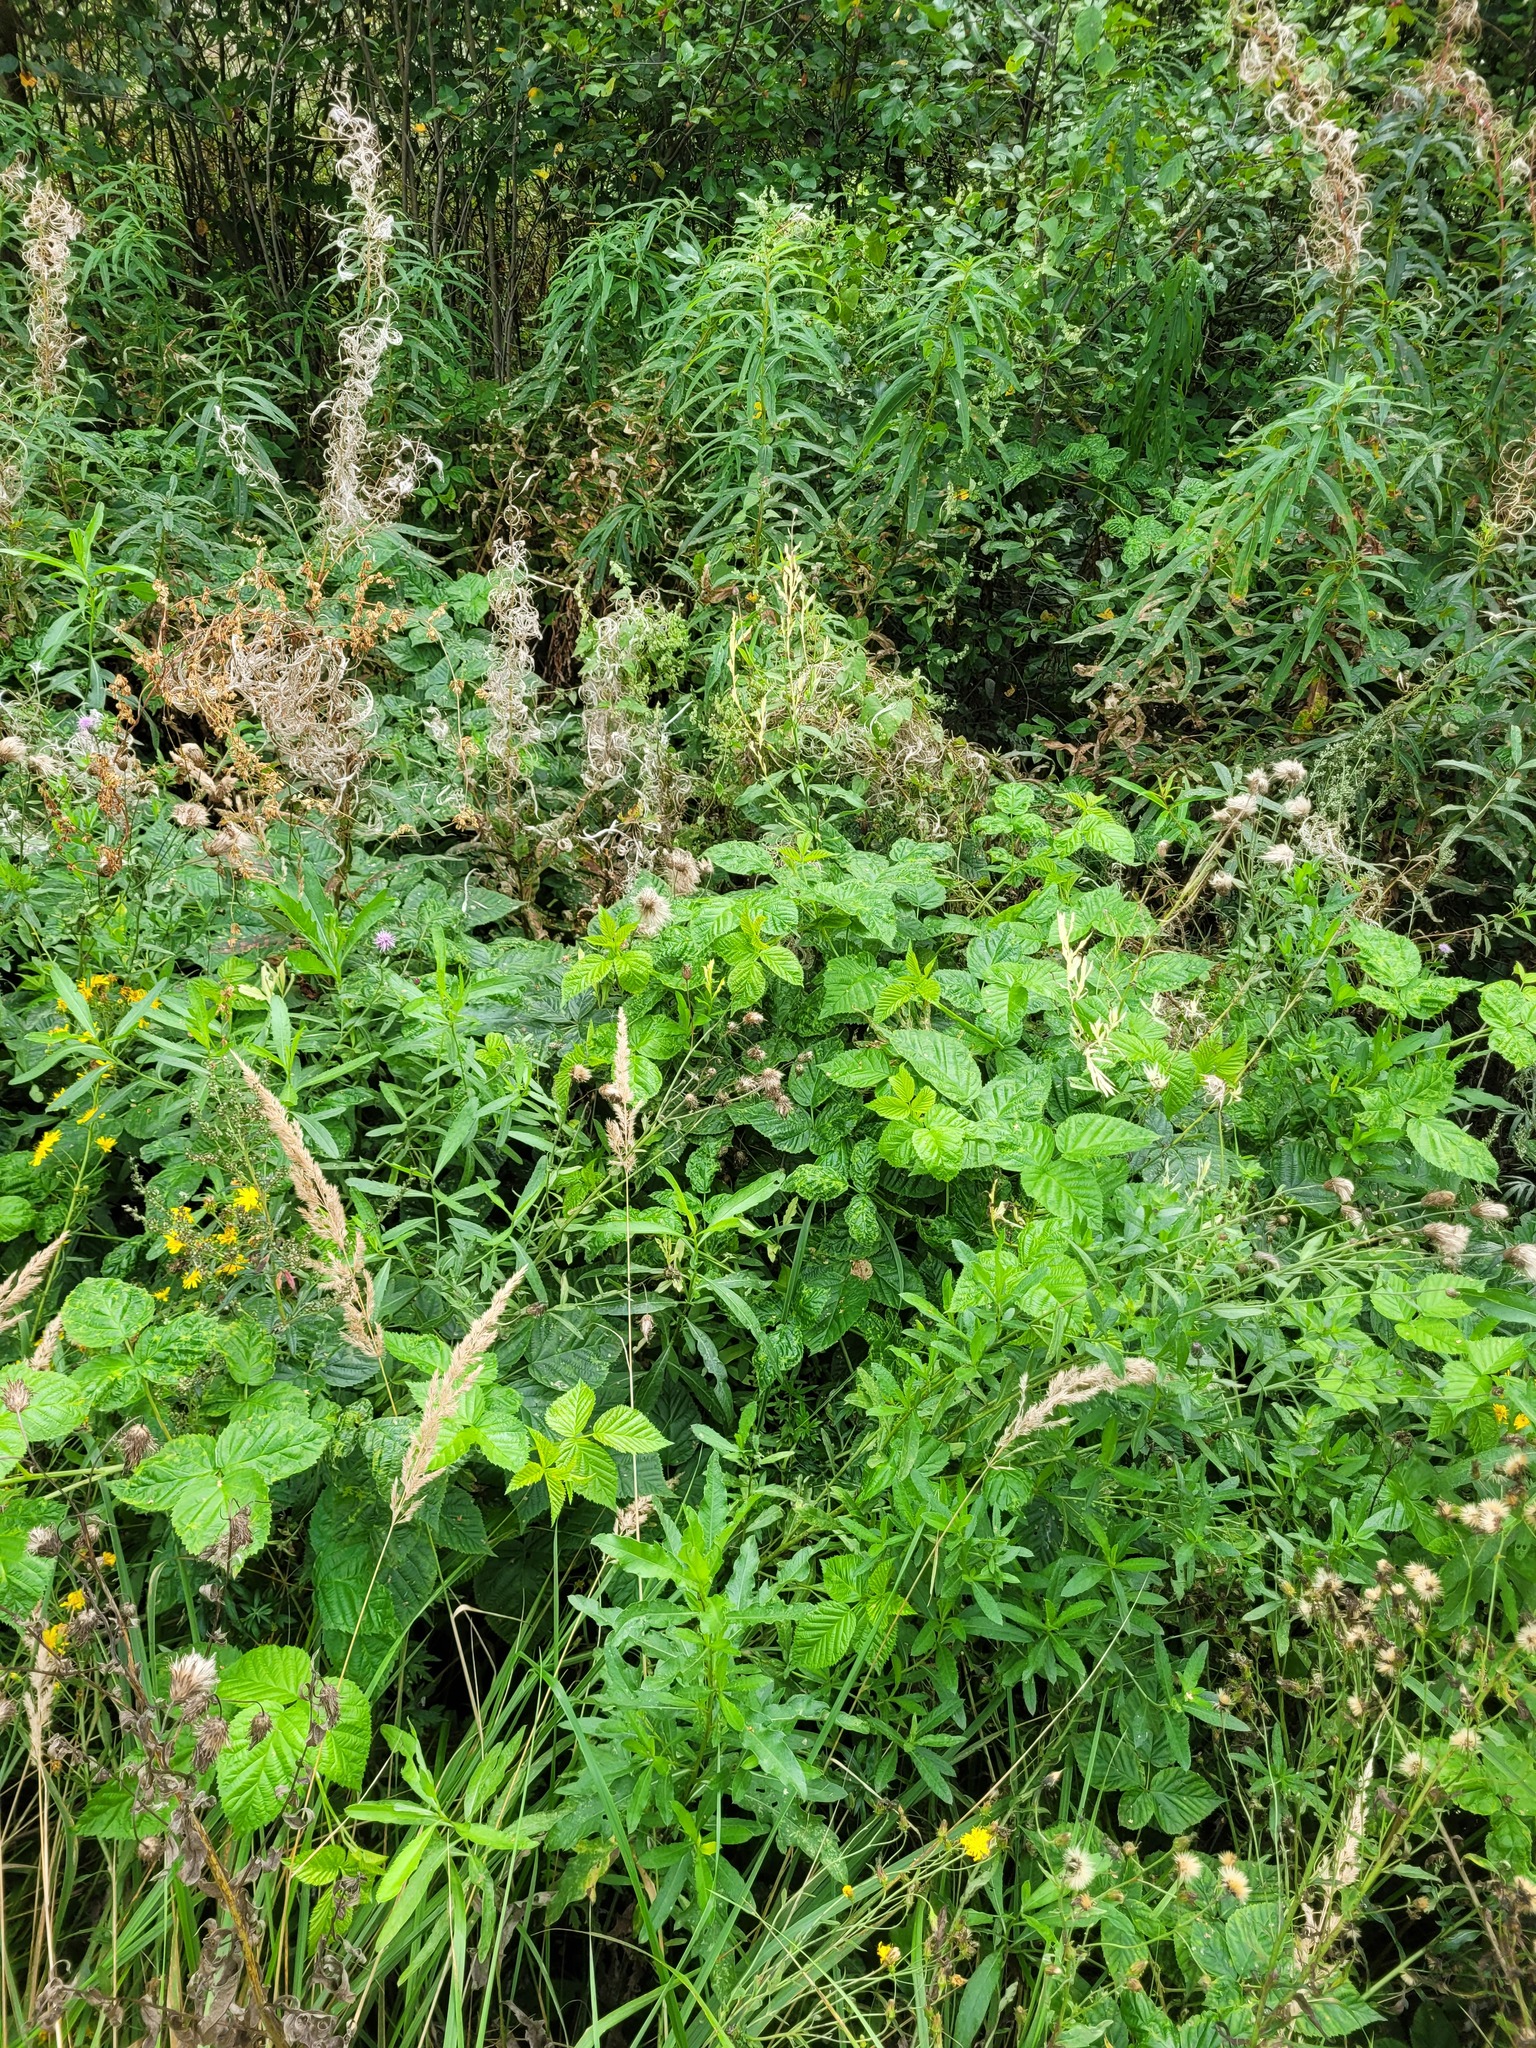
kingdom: Plantae
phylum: Tracheophyta
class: Magnoliopsida
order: Rosales
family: Rosaceae
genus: Rubus
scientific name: Rubus polonicus
